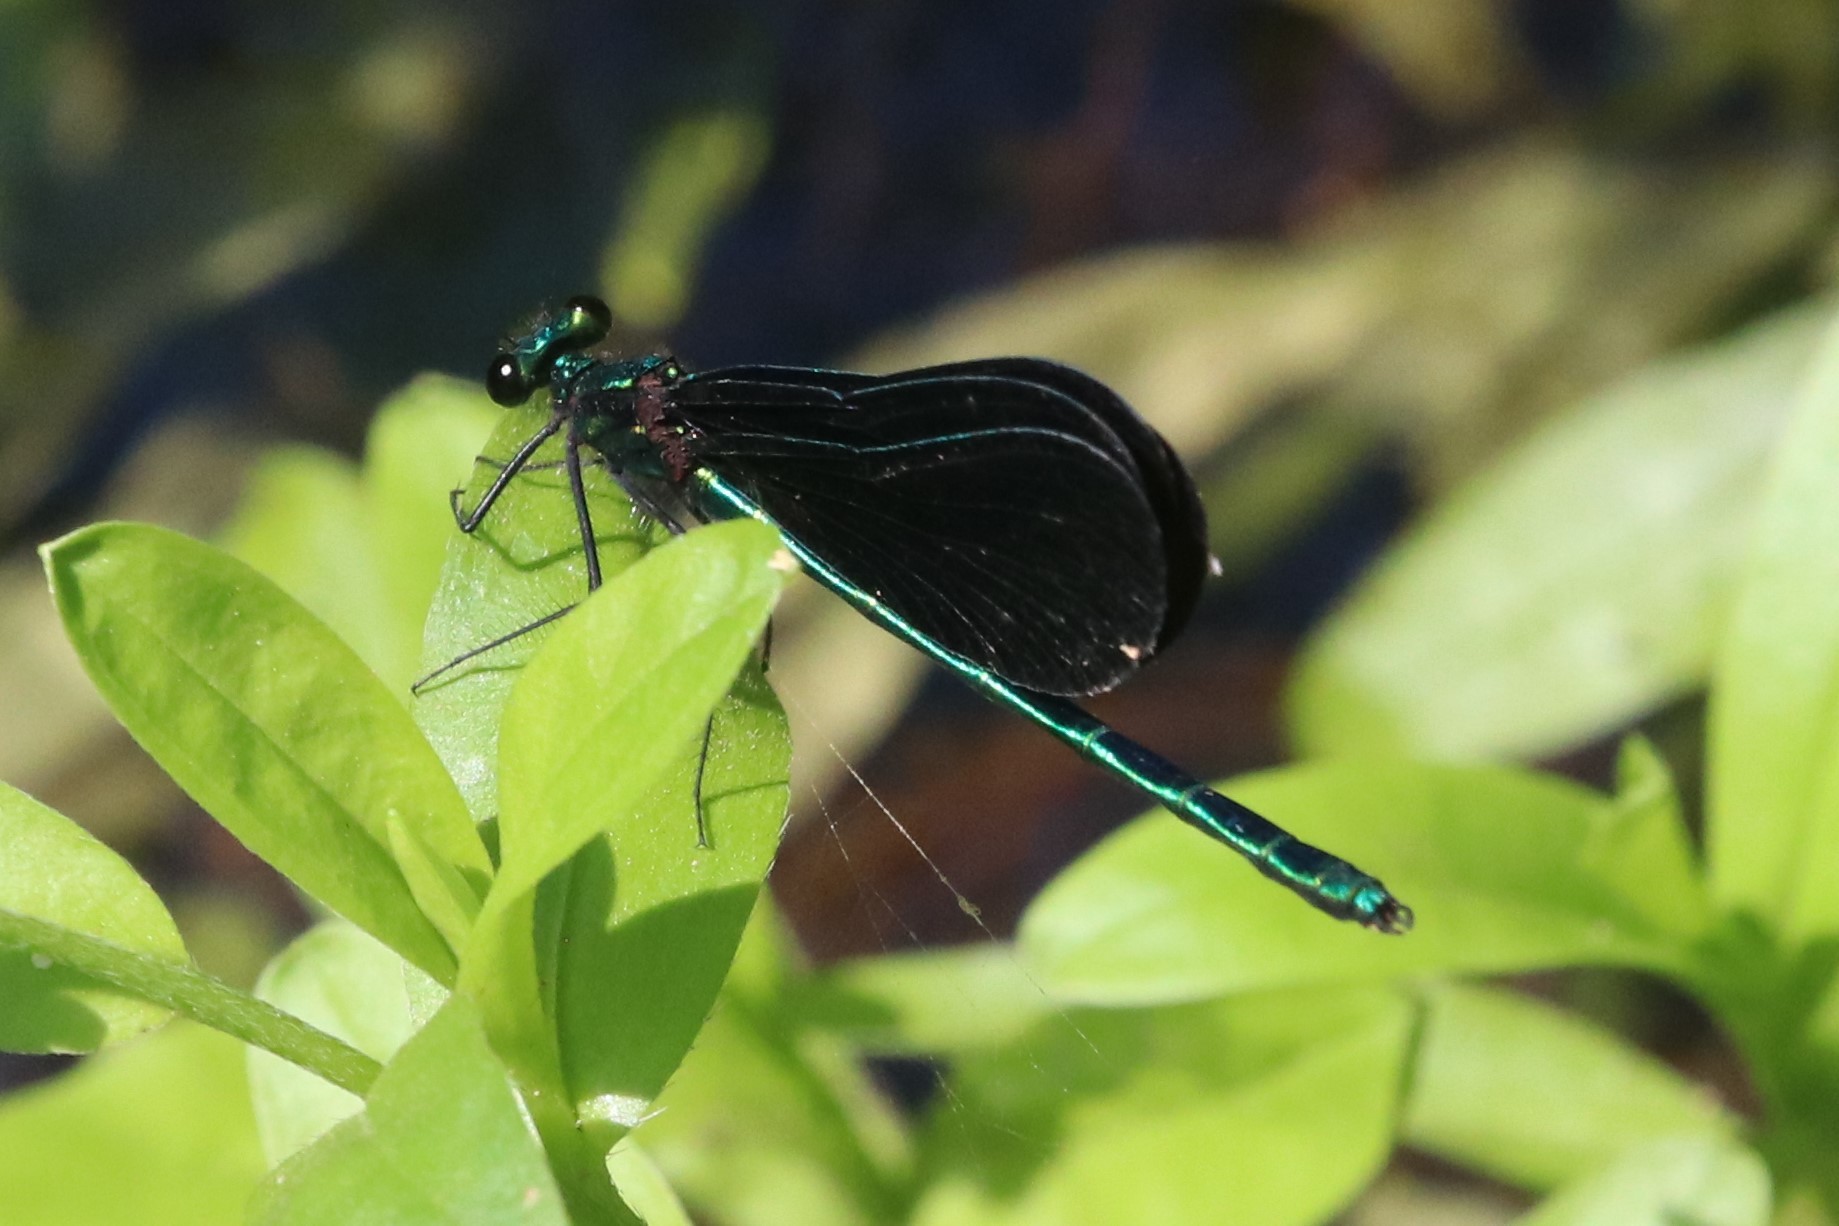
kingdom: Animalia
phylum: Arthropoda
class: Insecta
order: Odonata
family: Calopterygidae
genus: Calopteryx
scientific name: Calopteryx maculata
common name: Ebony jewelwing
